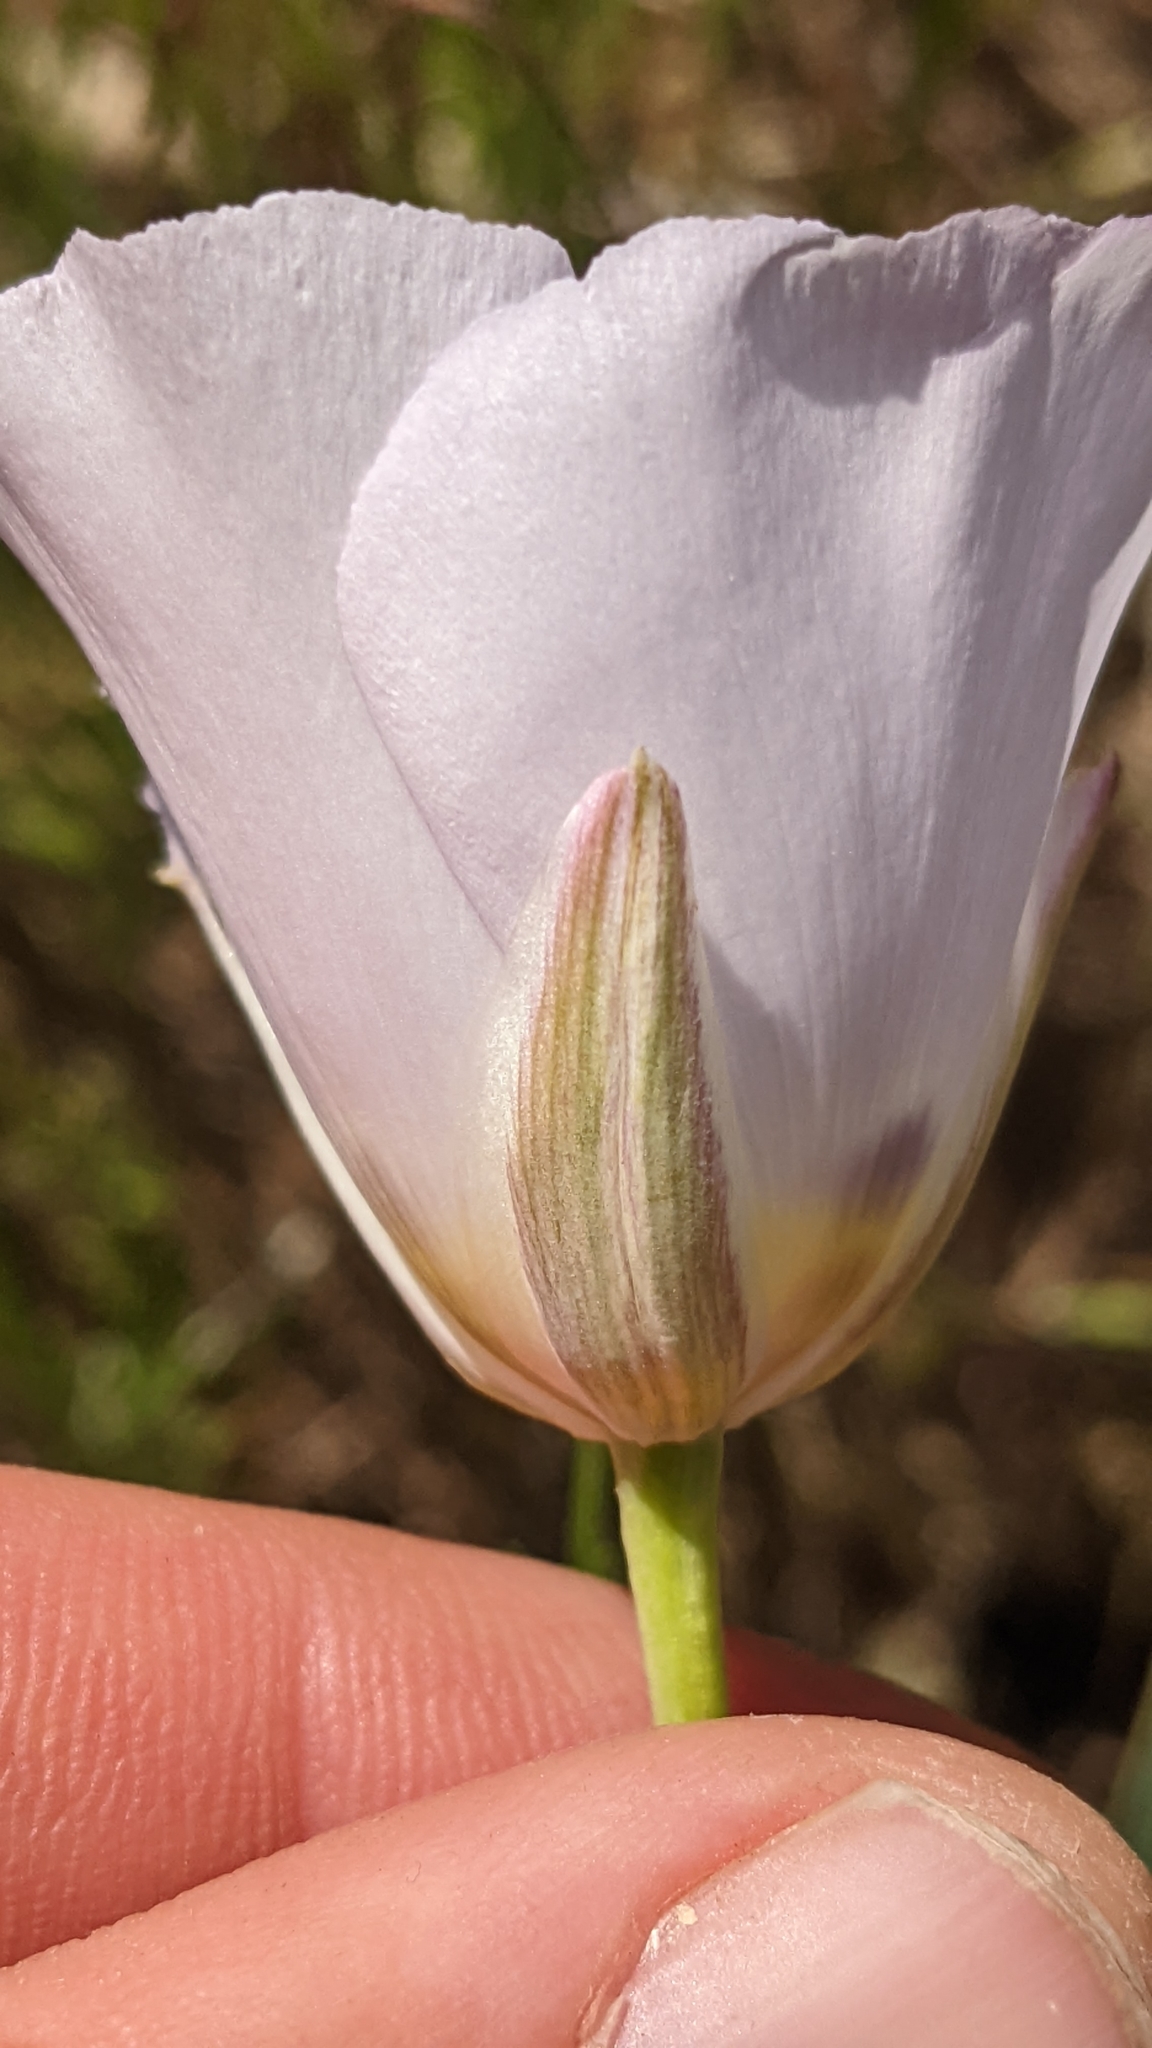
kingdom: Plantae
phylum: Tracheophyta
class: Liliopsida
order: Liliales
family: Liliaceae
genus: Calochortus
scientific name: Calochortus flexuosus
